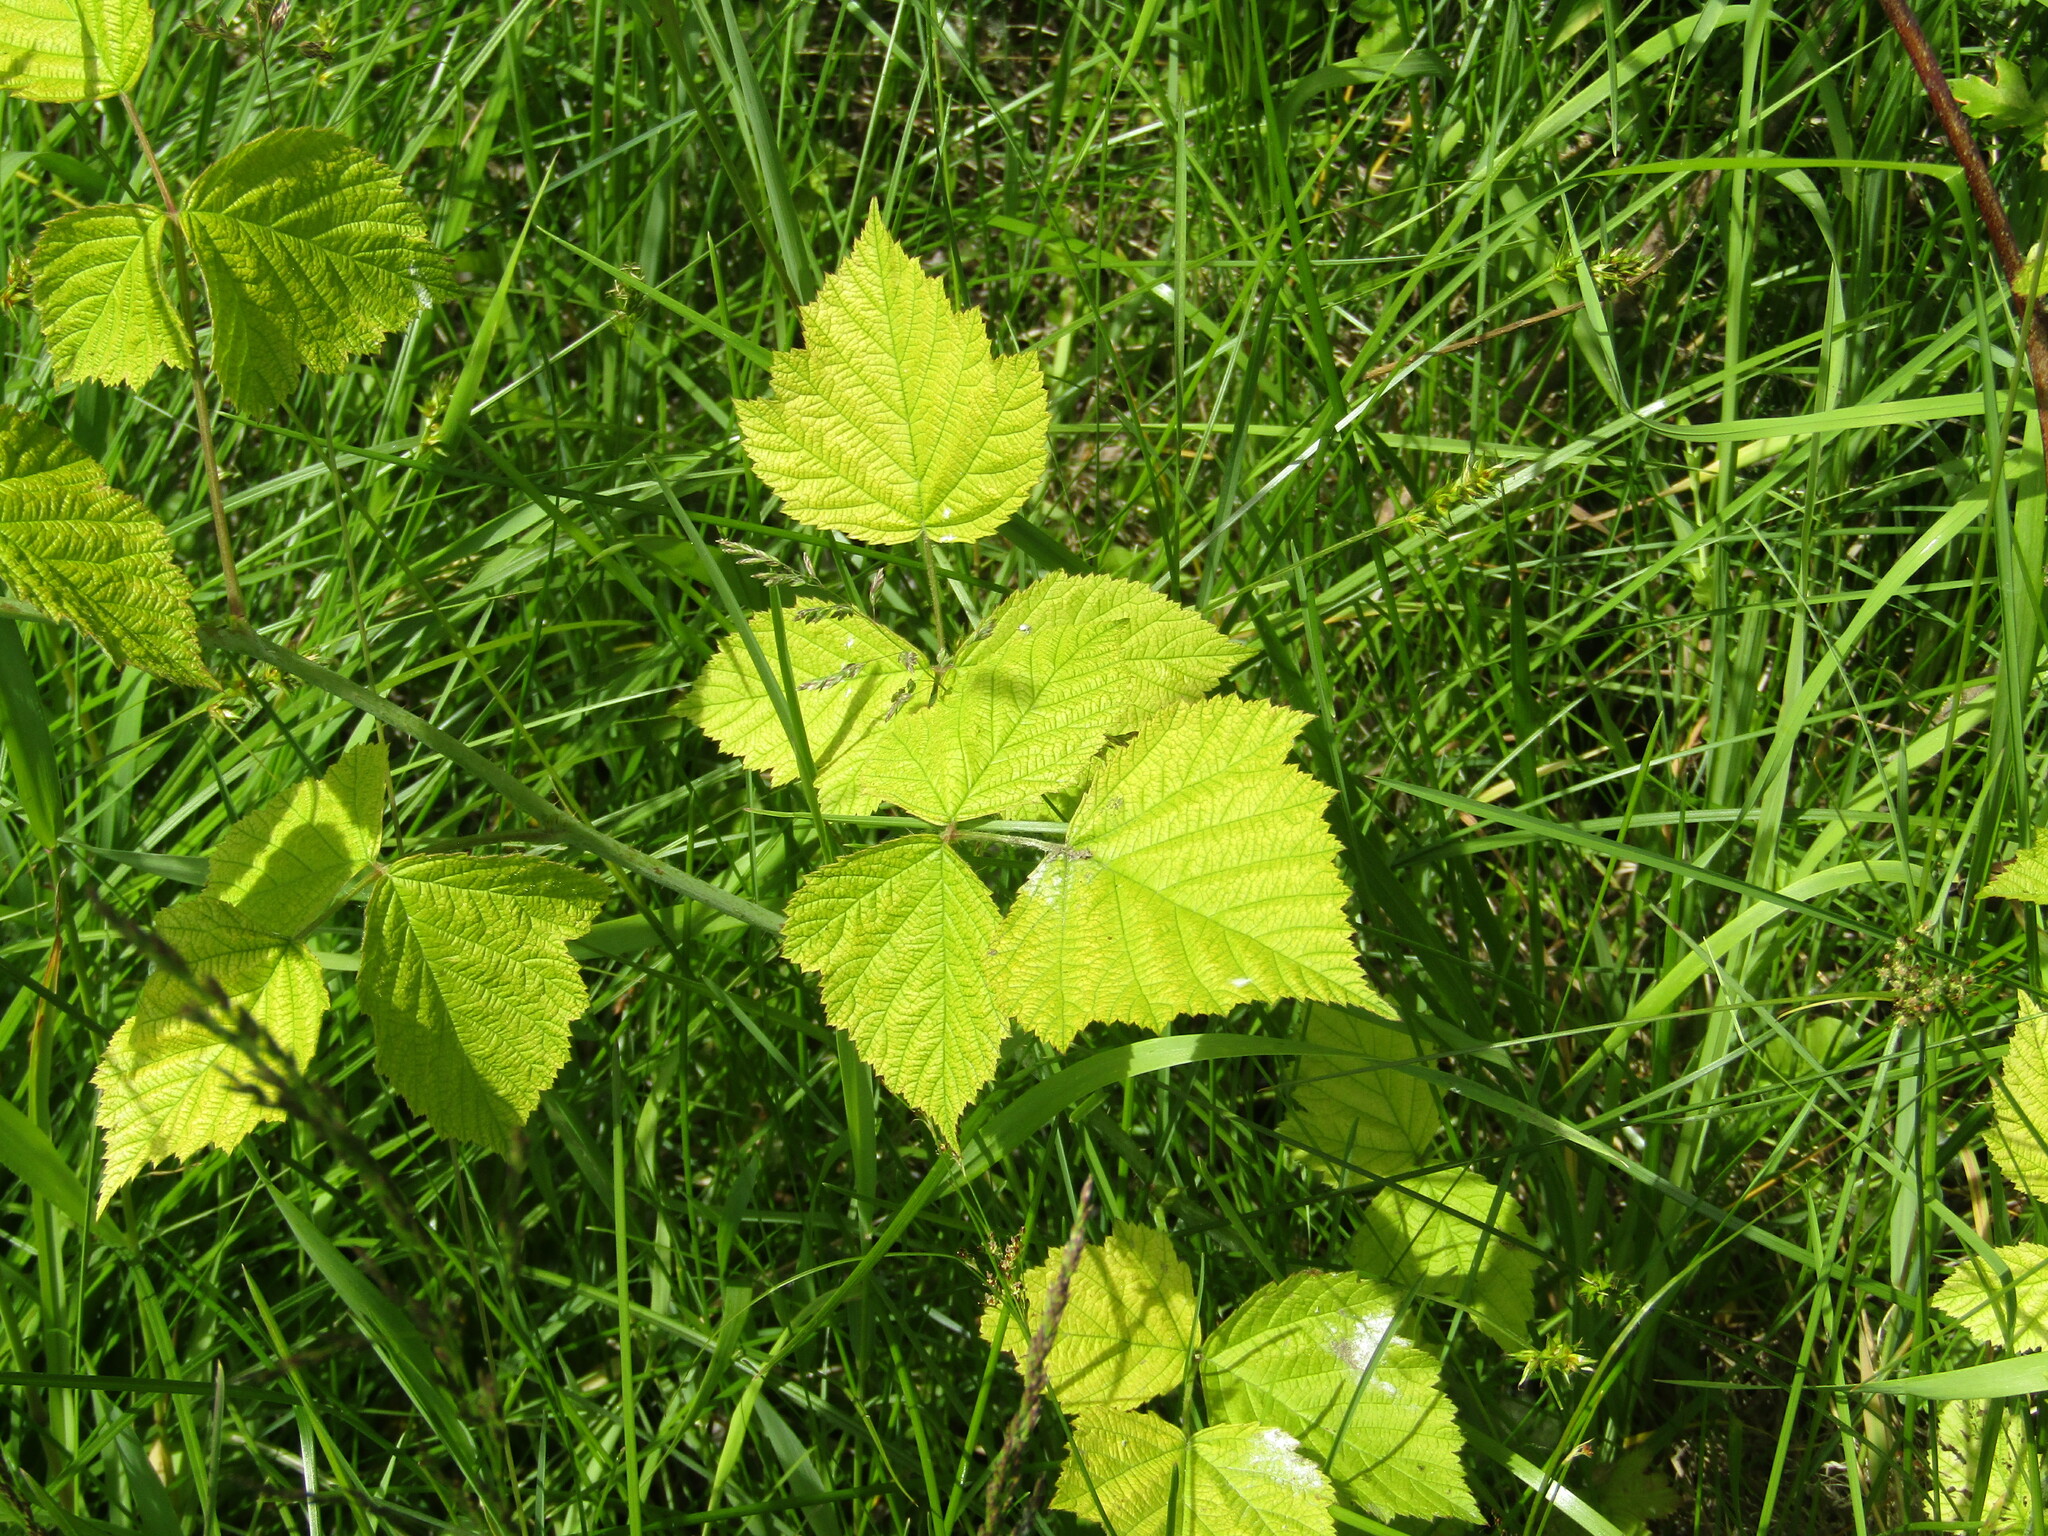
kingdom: Plantae
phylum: Tracheophyta
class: Magnoliopsida
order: Rosales
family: Rosaceae
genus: Rubus
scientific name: Rubus caesius
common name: Dewberry
